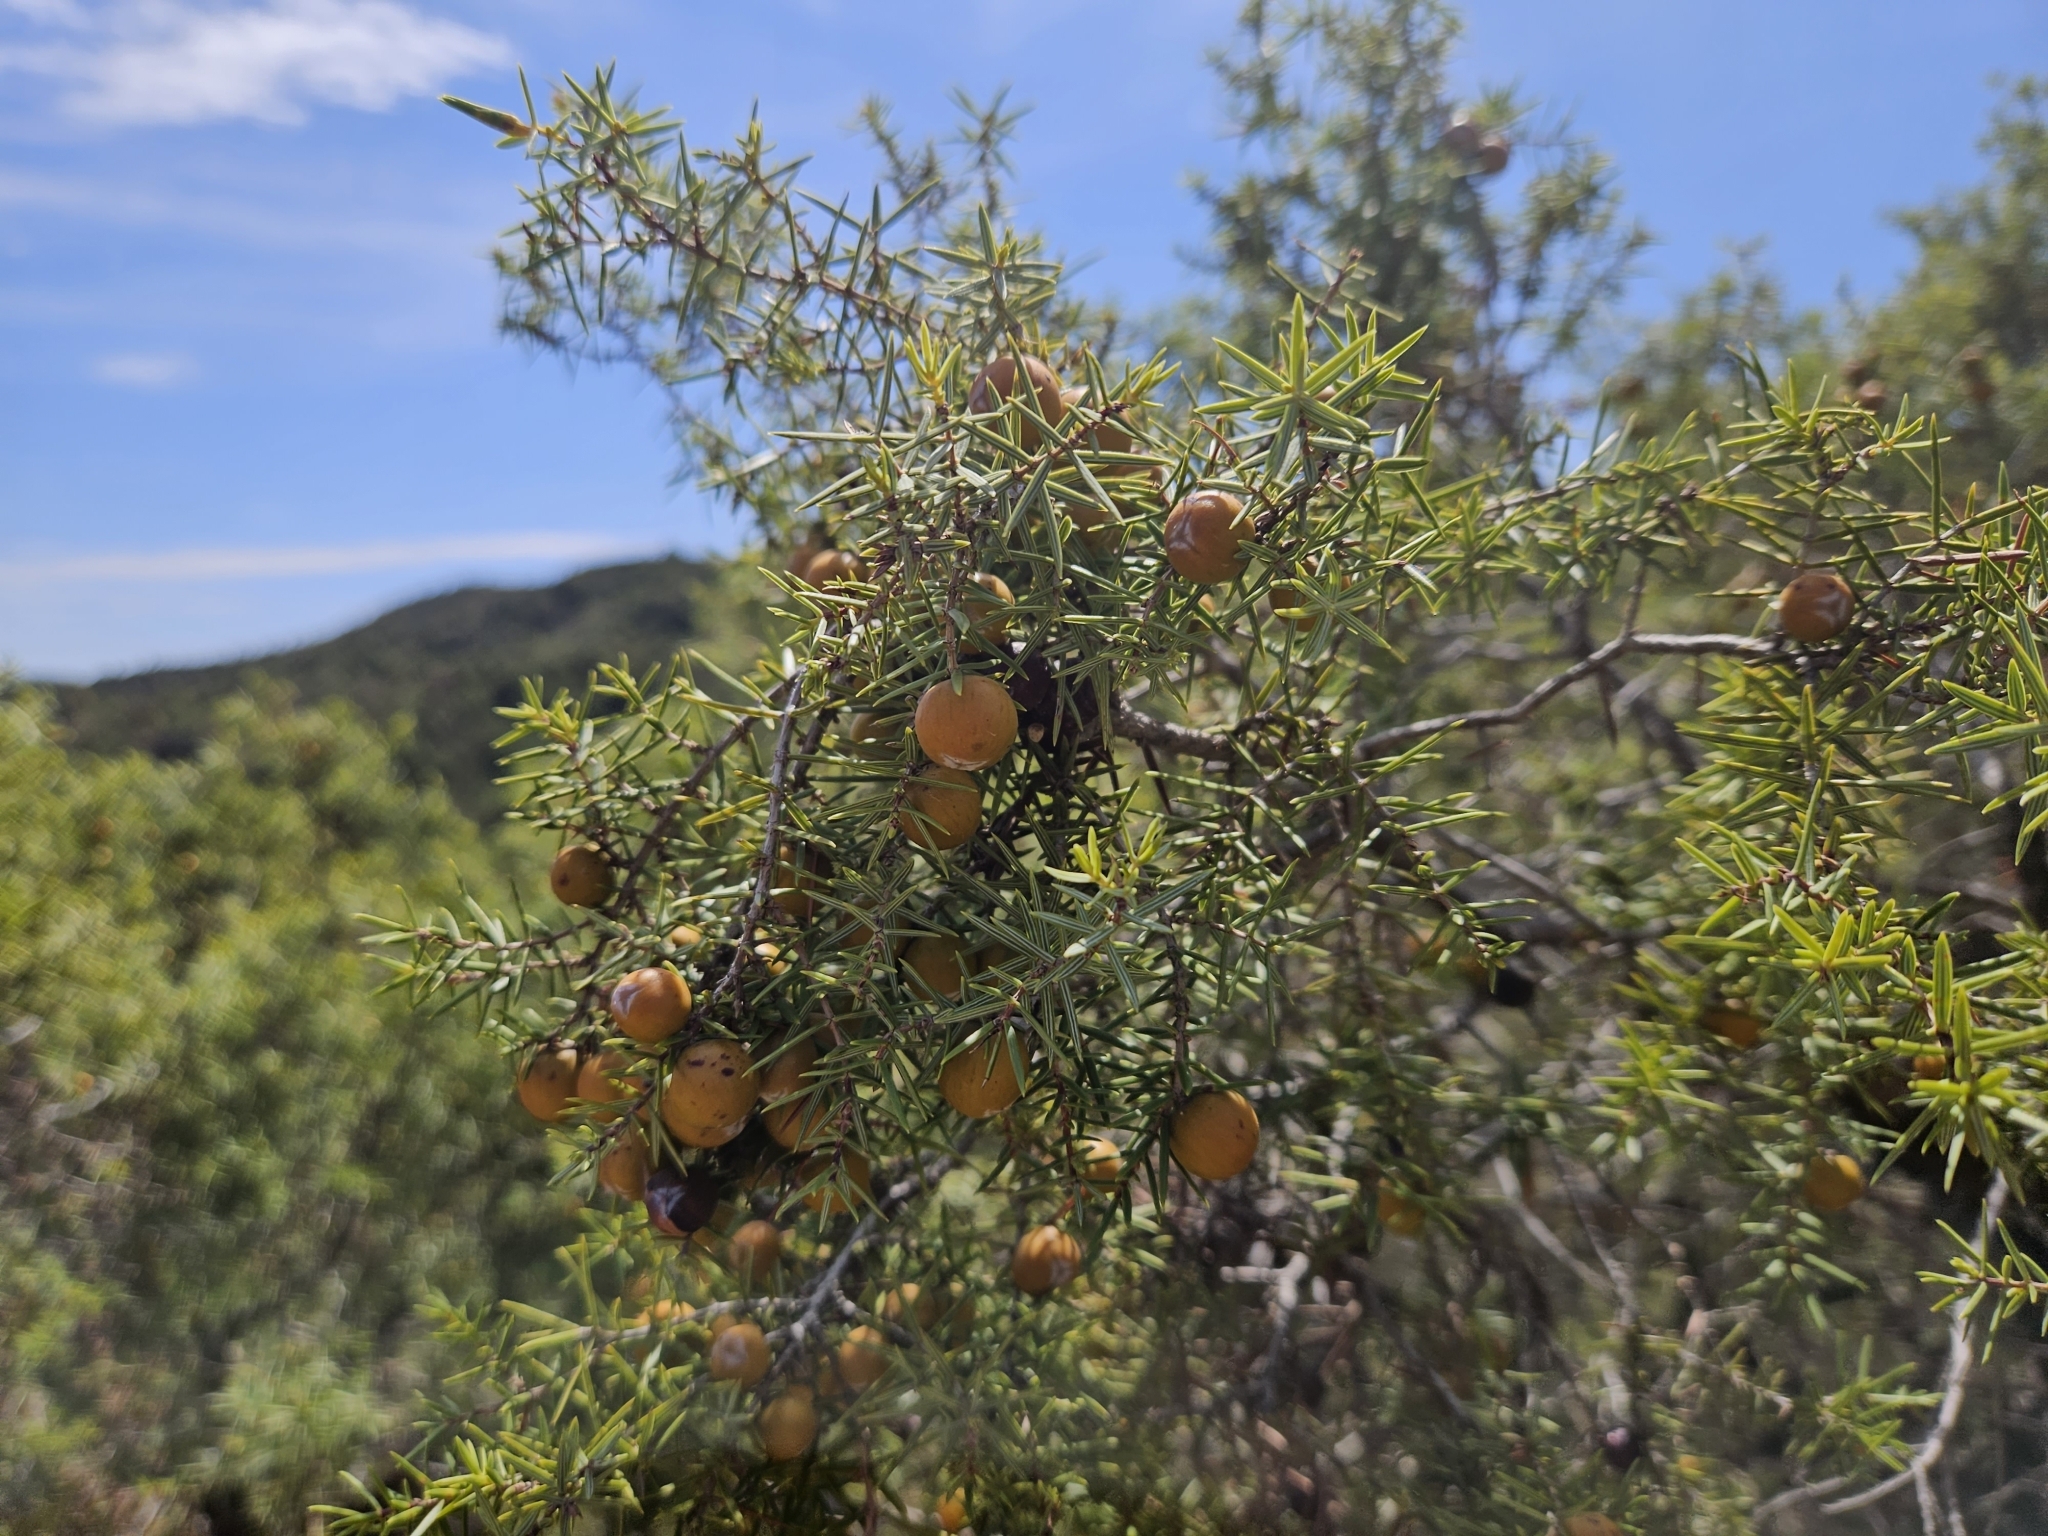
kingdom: Plantae
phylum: Tracheophyta
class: Pinopsida
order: Pinales
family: Cupressaceae
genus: Juniperus
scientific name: Juniperus oxycedrus
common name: Prickly juniper
